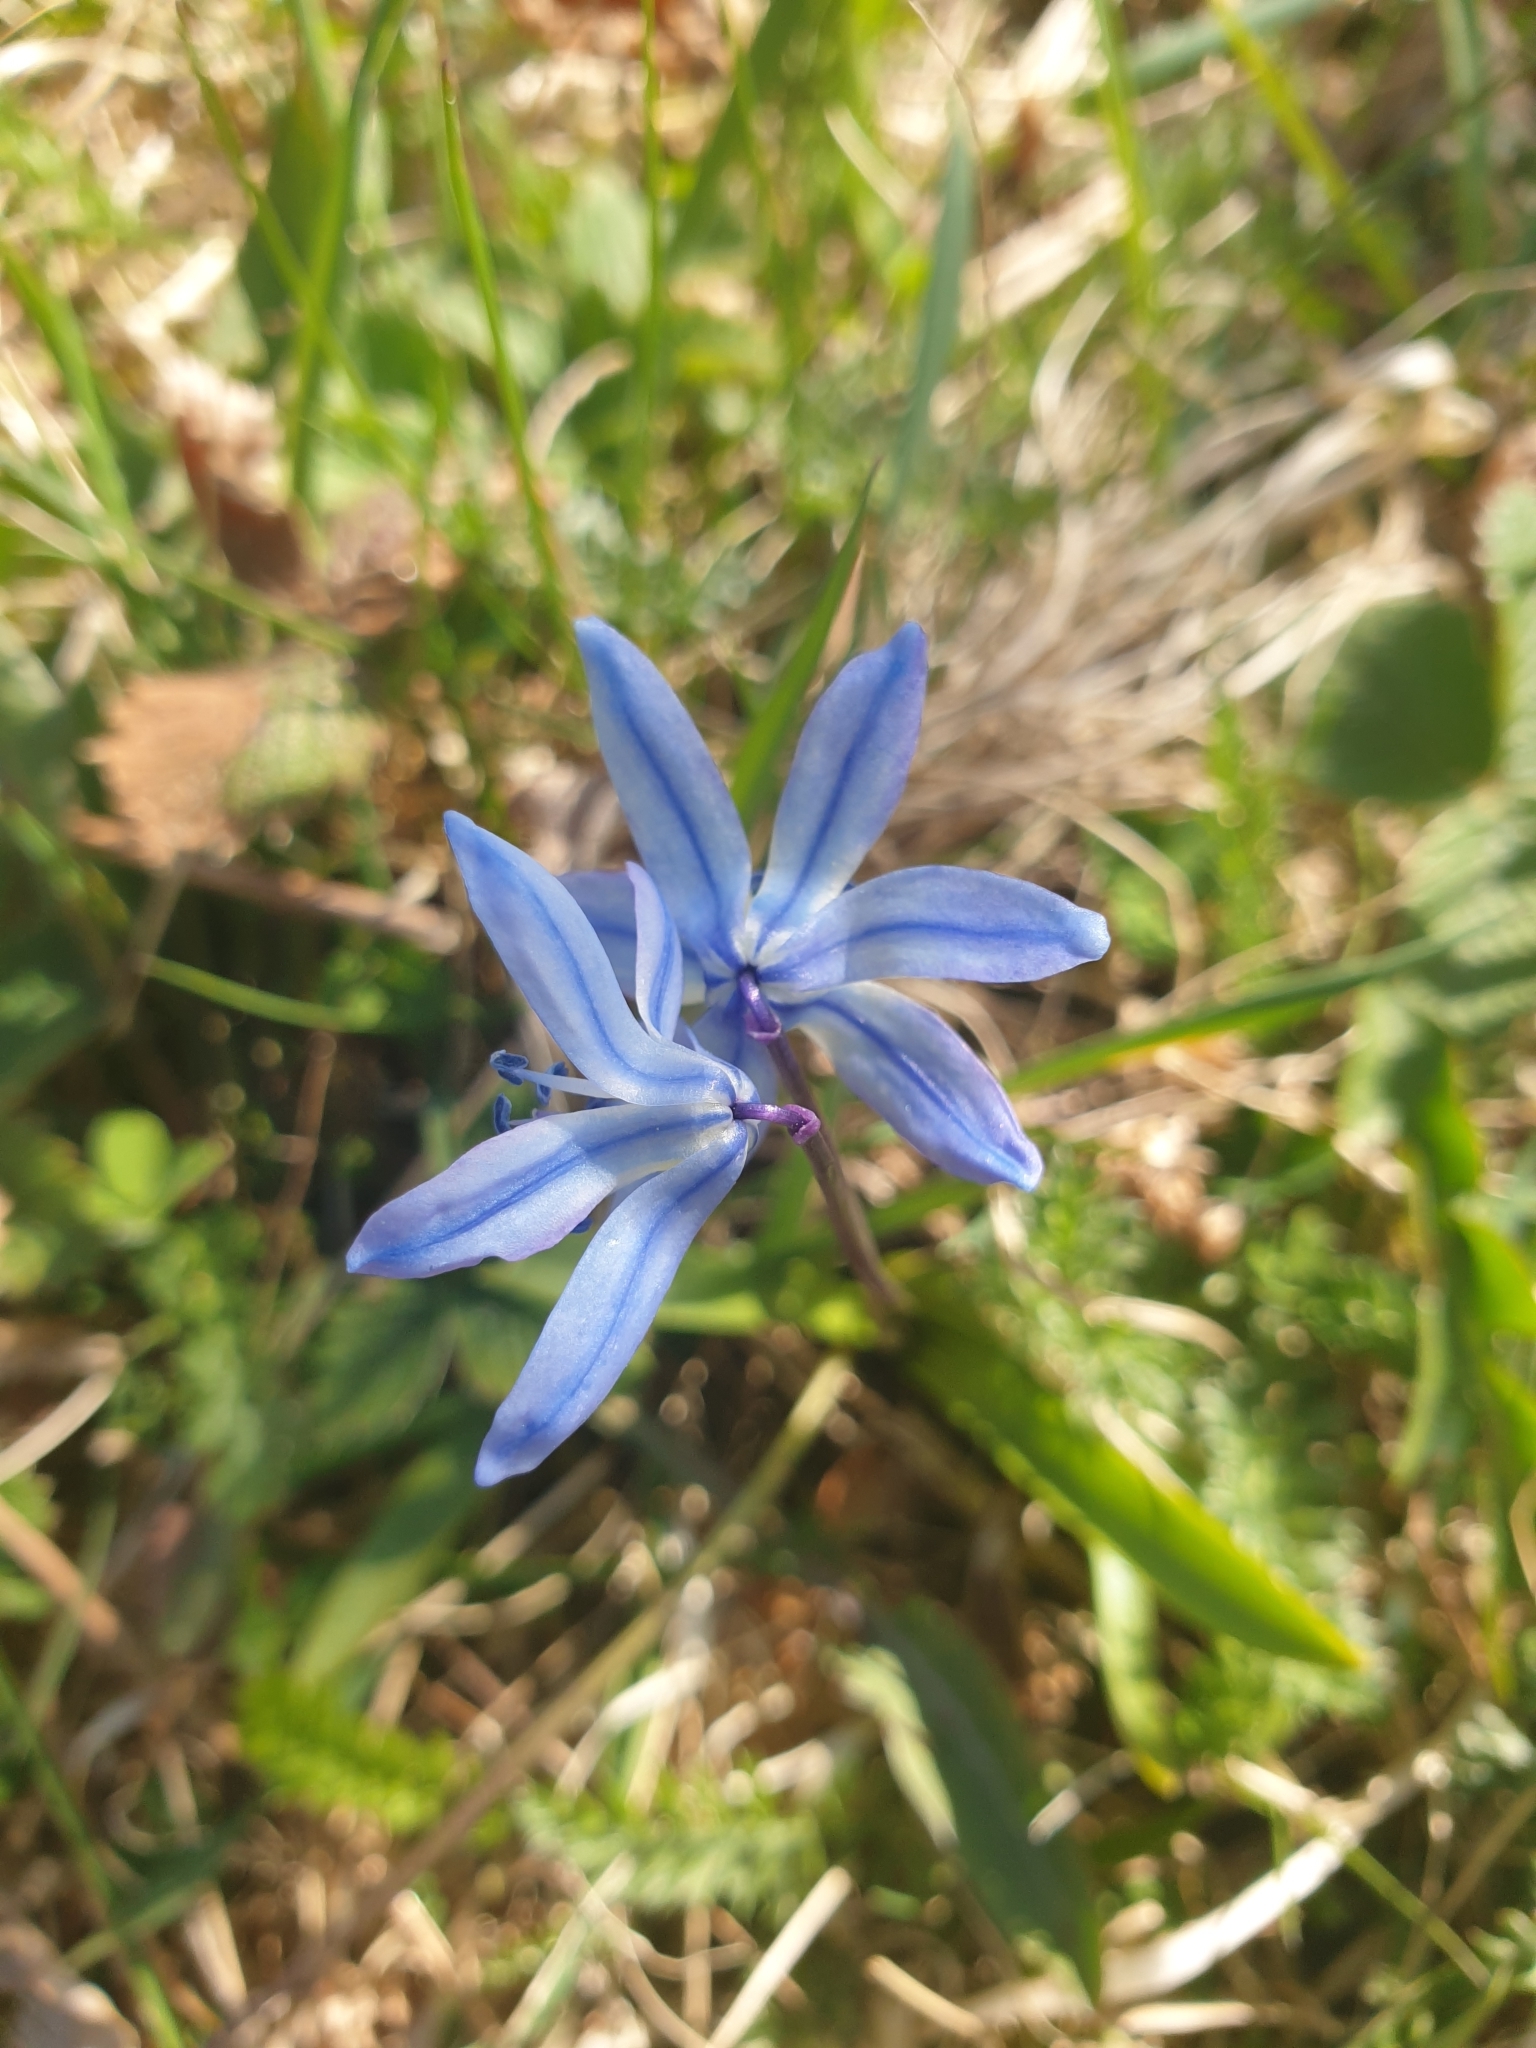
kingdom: Plantae
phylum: Tracheophyta
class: Liliopsida
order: Asparagales
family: Asparagaceae
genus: Scilla
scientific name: Scilla siberica
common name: Siberian squill
